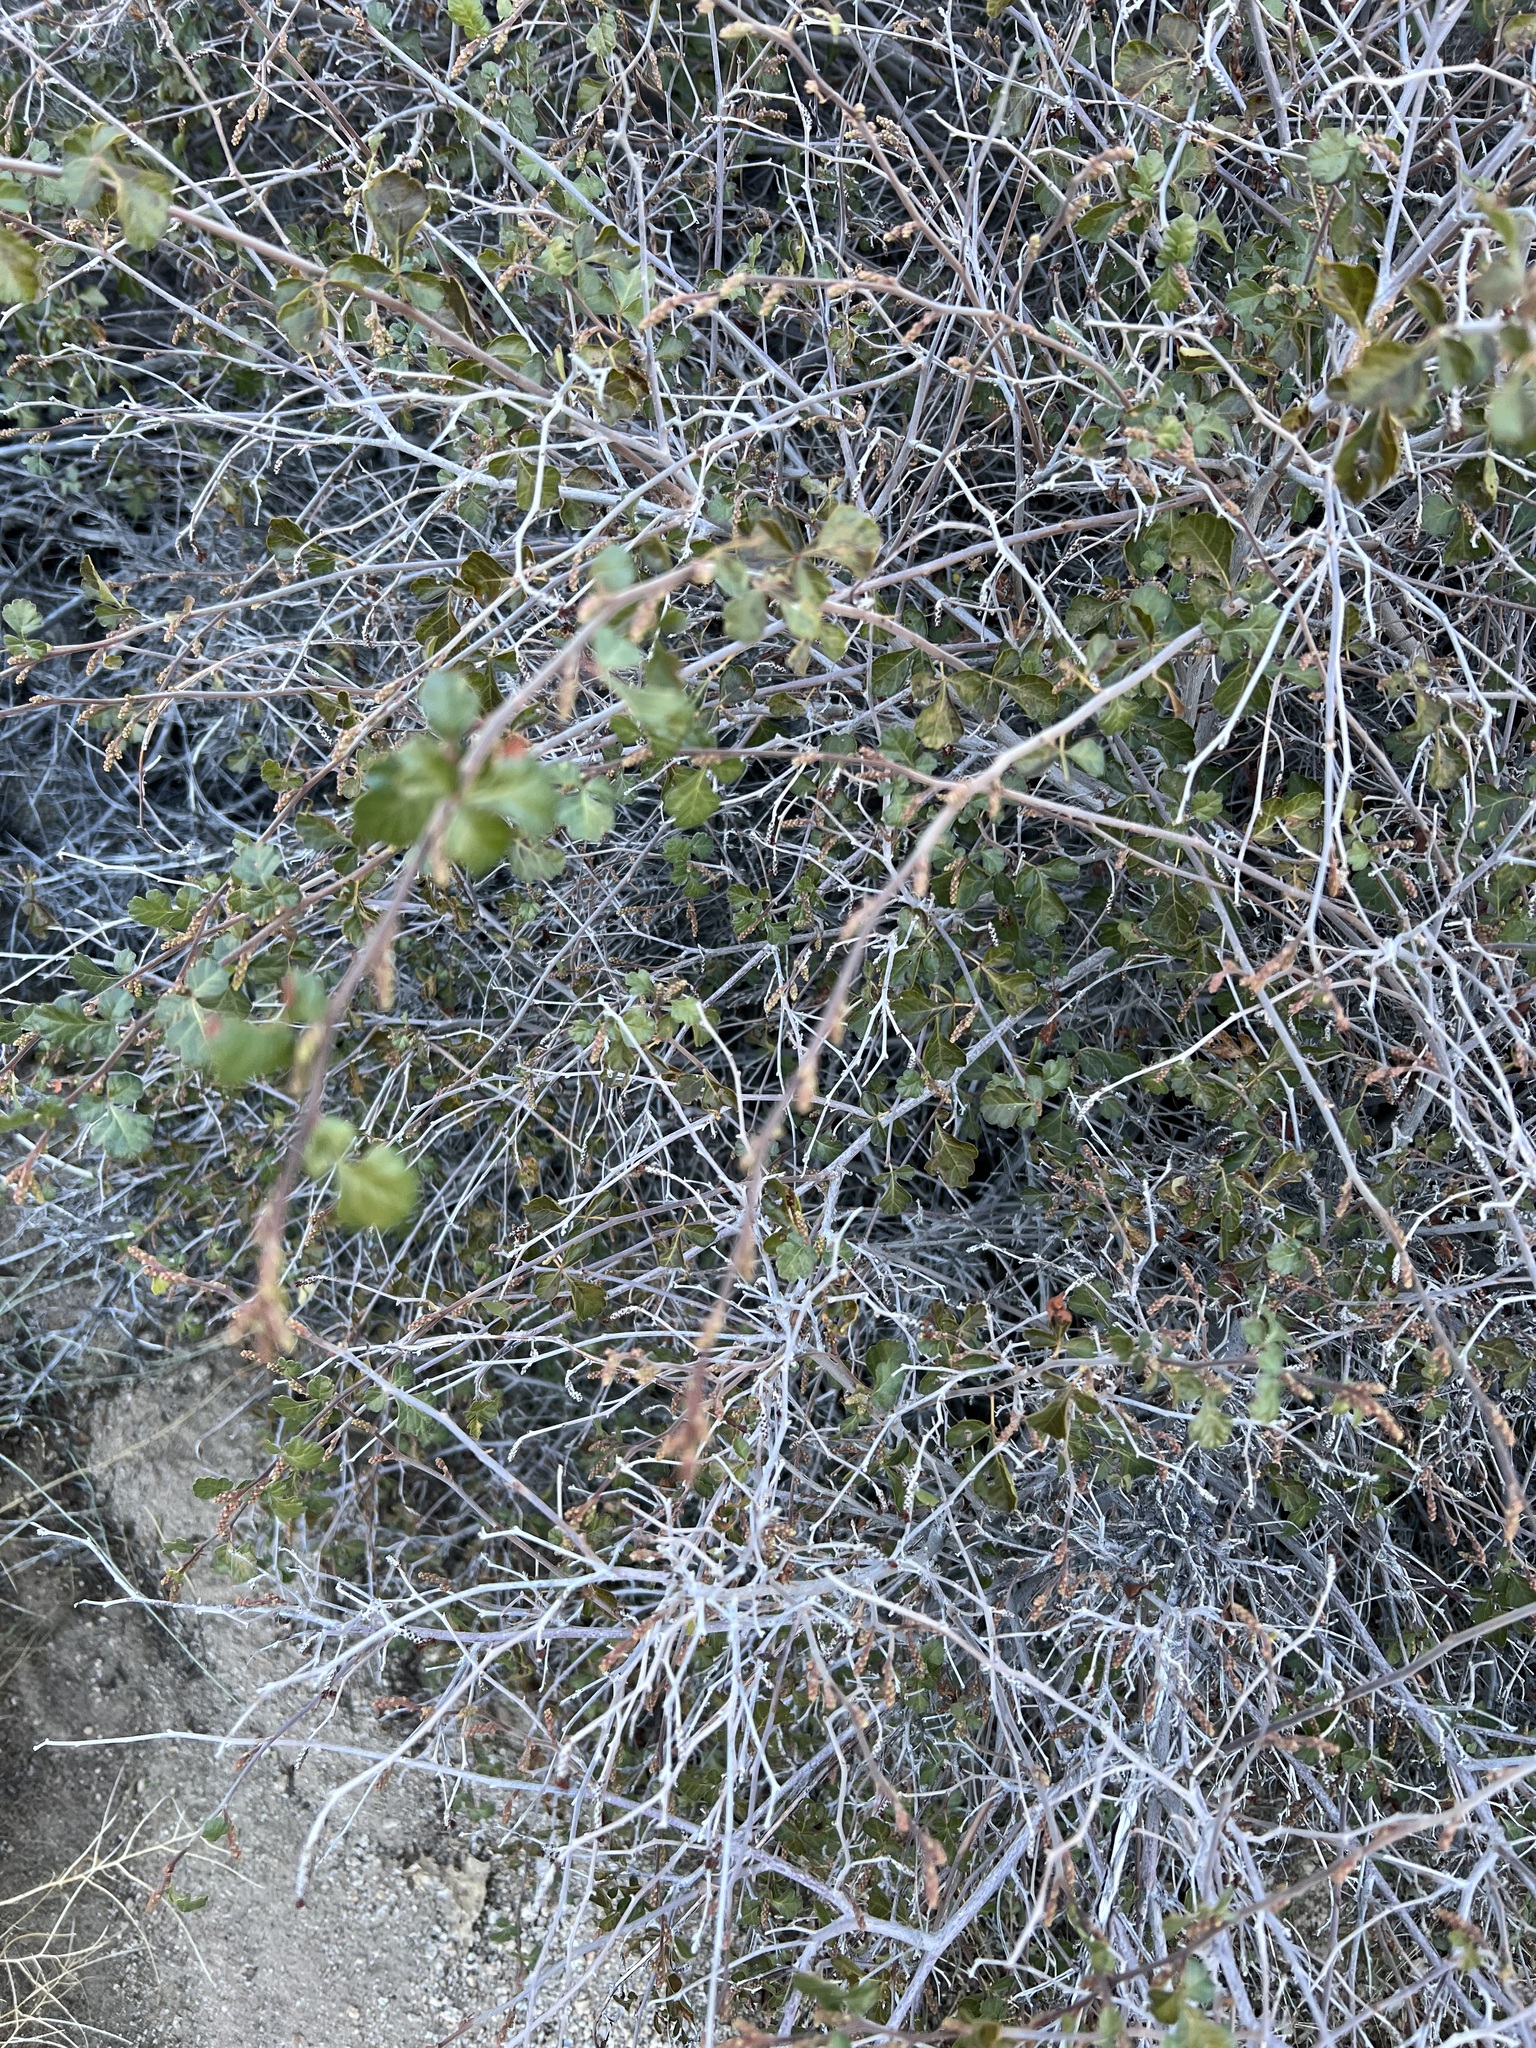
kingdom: Plantae
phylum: Tracheophyta
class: Magnoliopsida
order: Sapindales
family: Anacardiaceae
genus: Rhus
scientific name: Rhus aromatica
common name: Aromatic sumac
